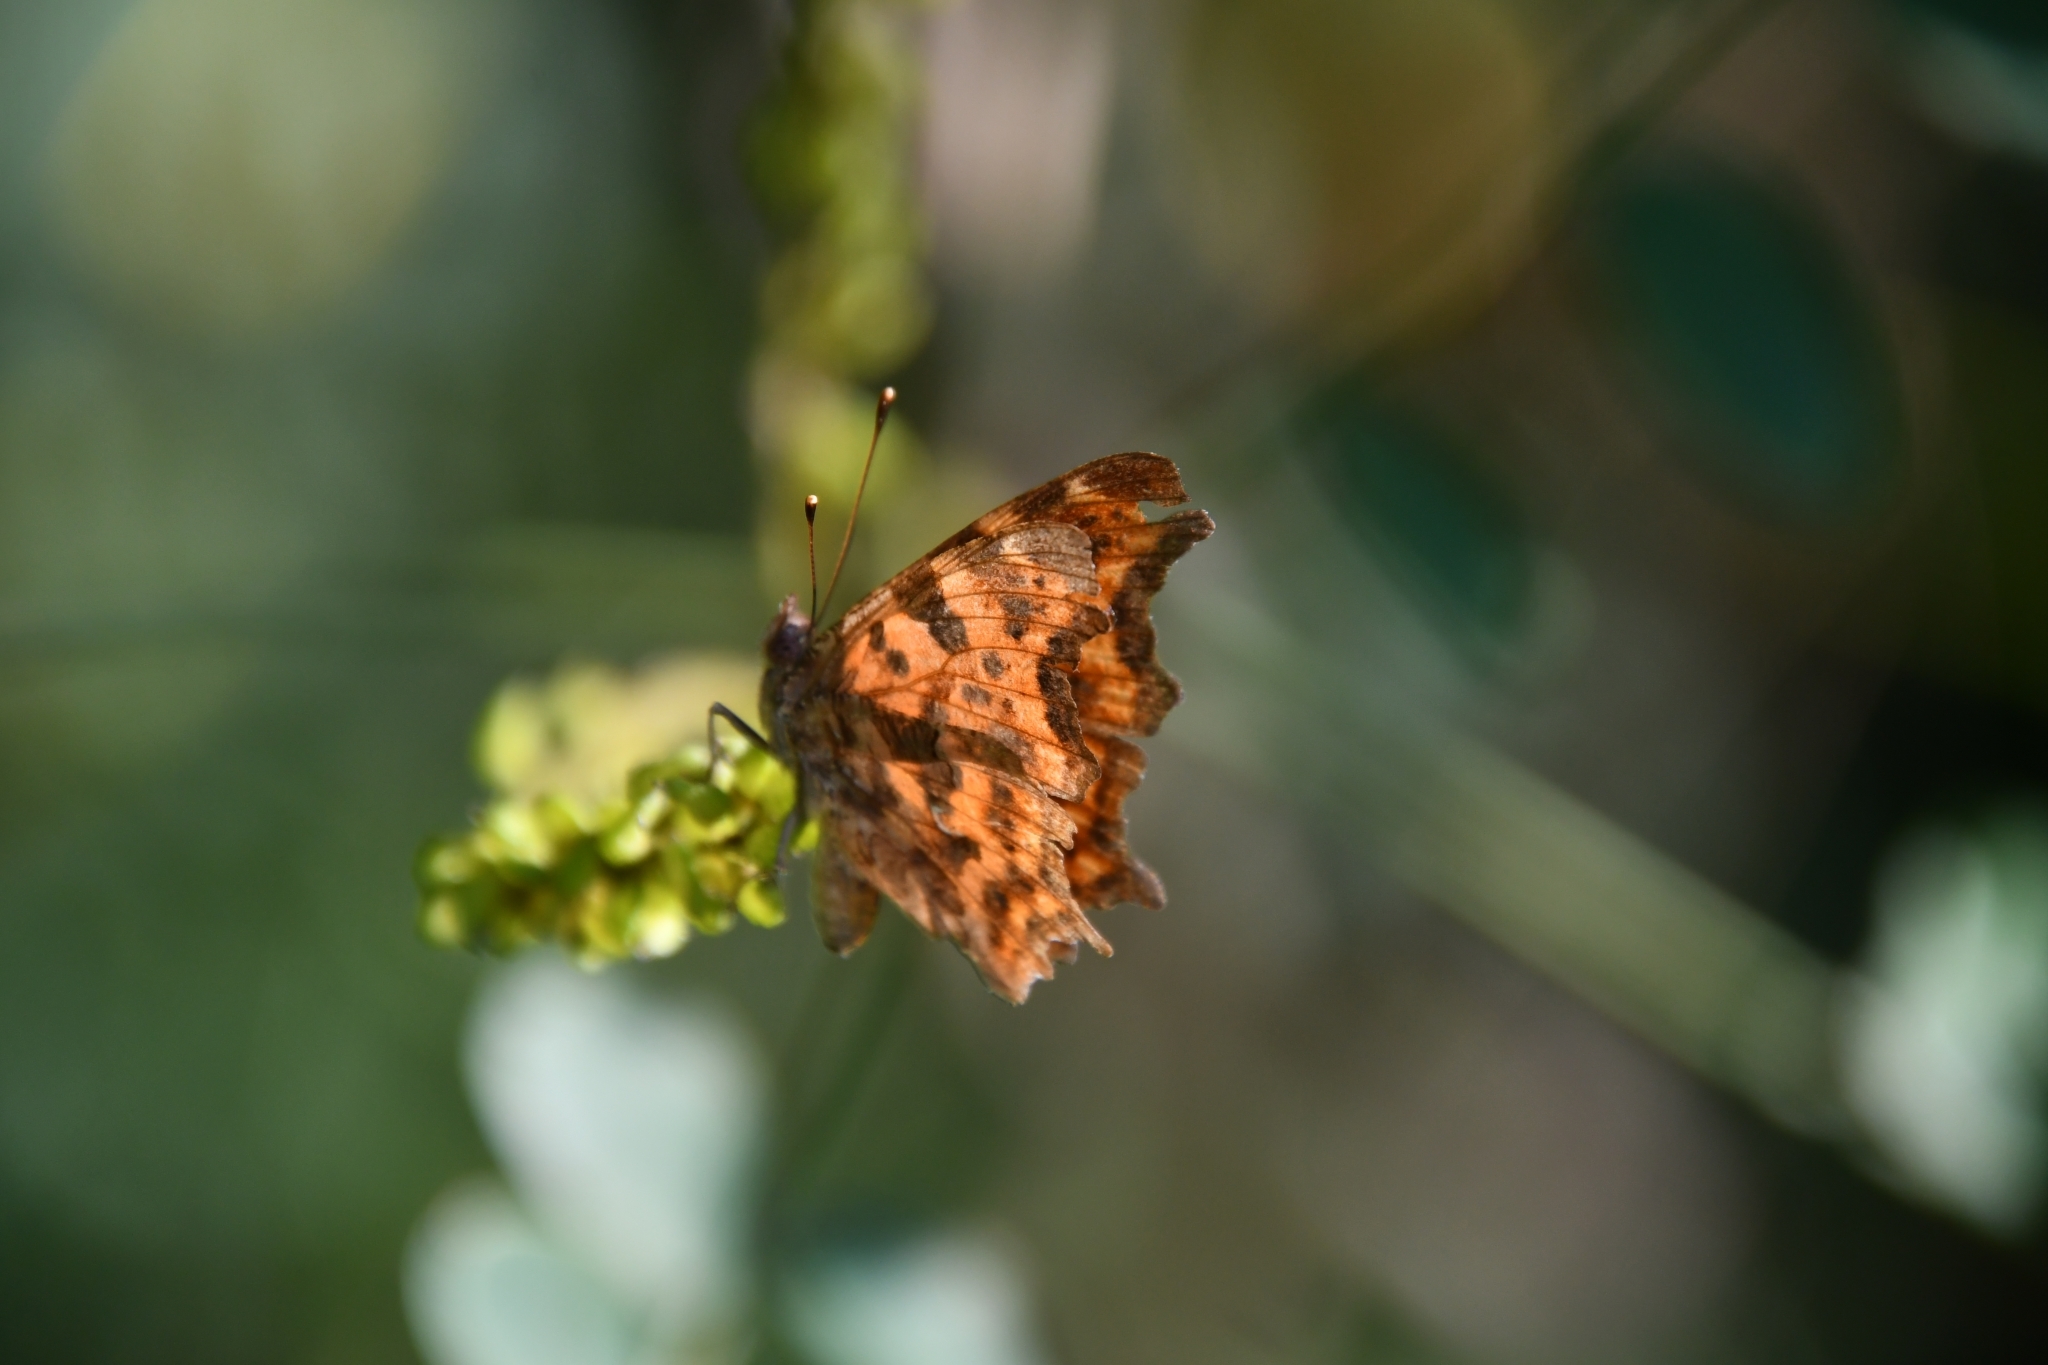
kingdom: Animalia
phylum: Arthropoda
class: Insecta
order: Lepidoptera
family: Nymphalidae
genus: Polygonia
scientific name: Polygonia c-album
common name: Comma
